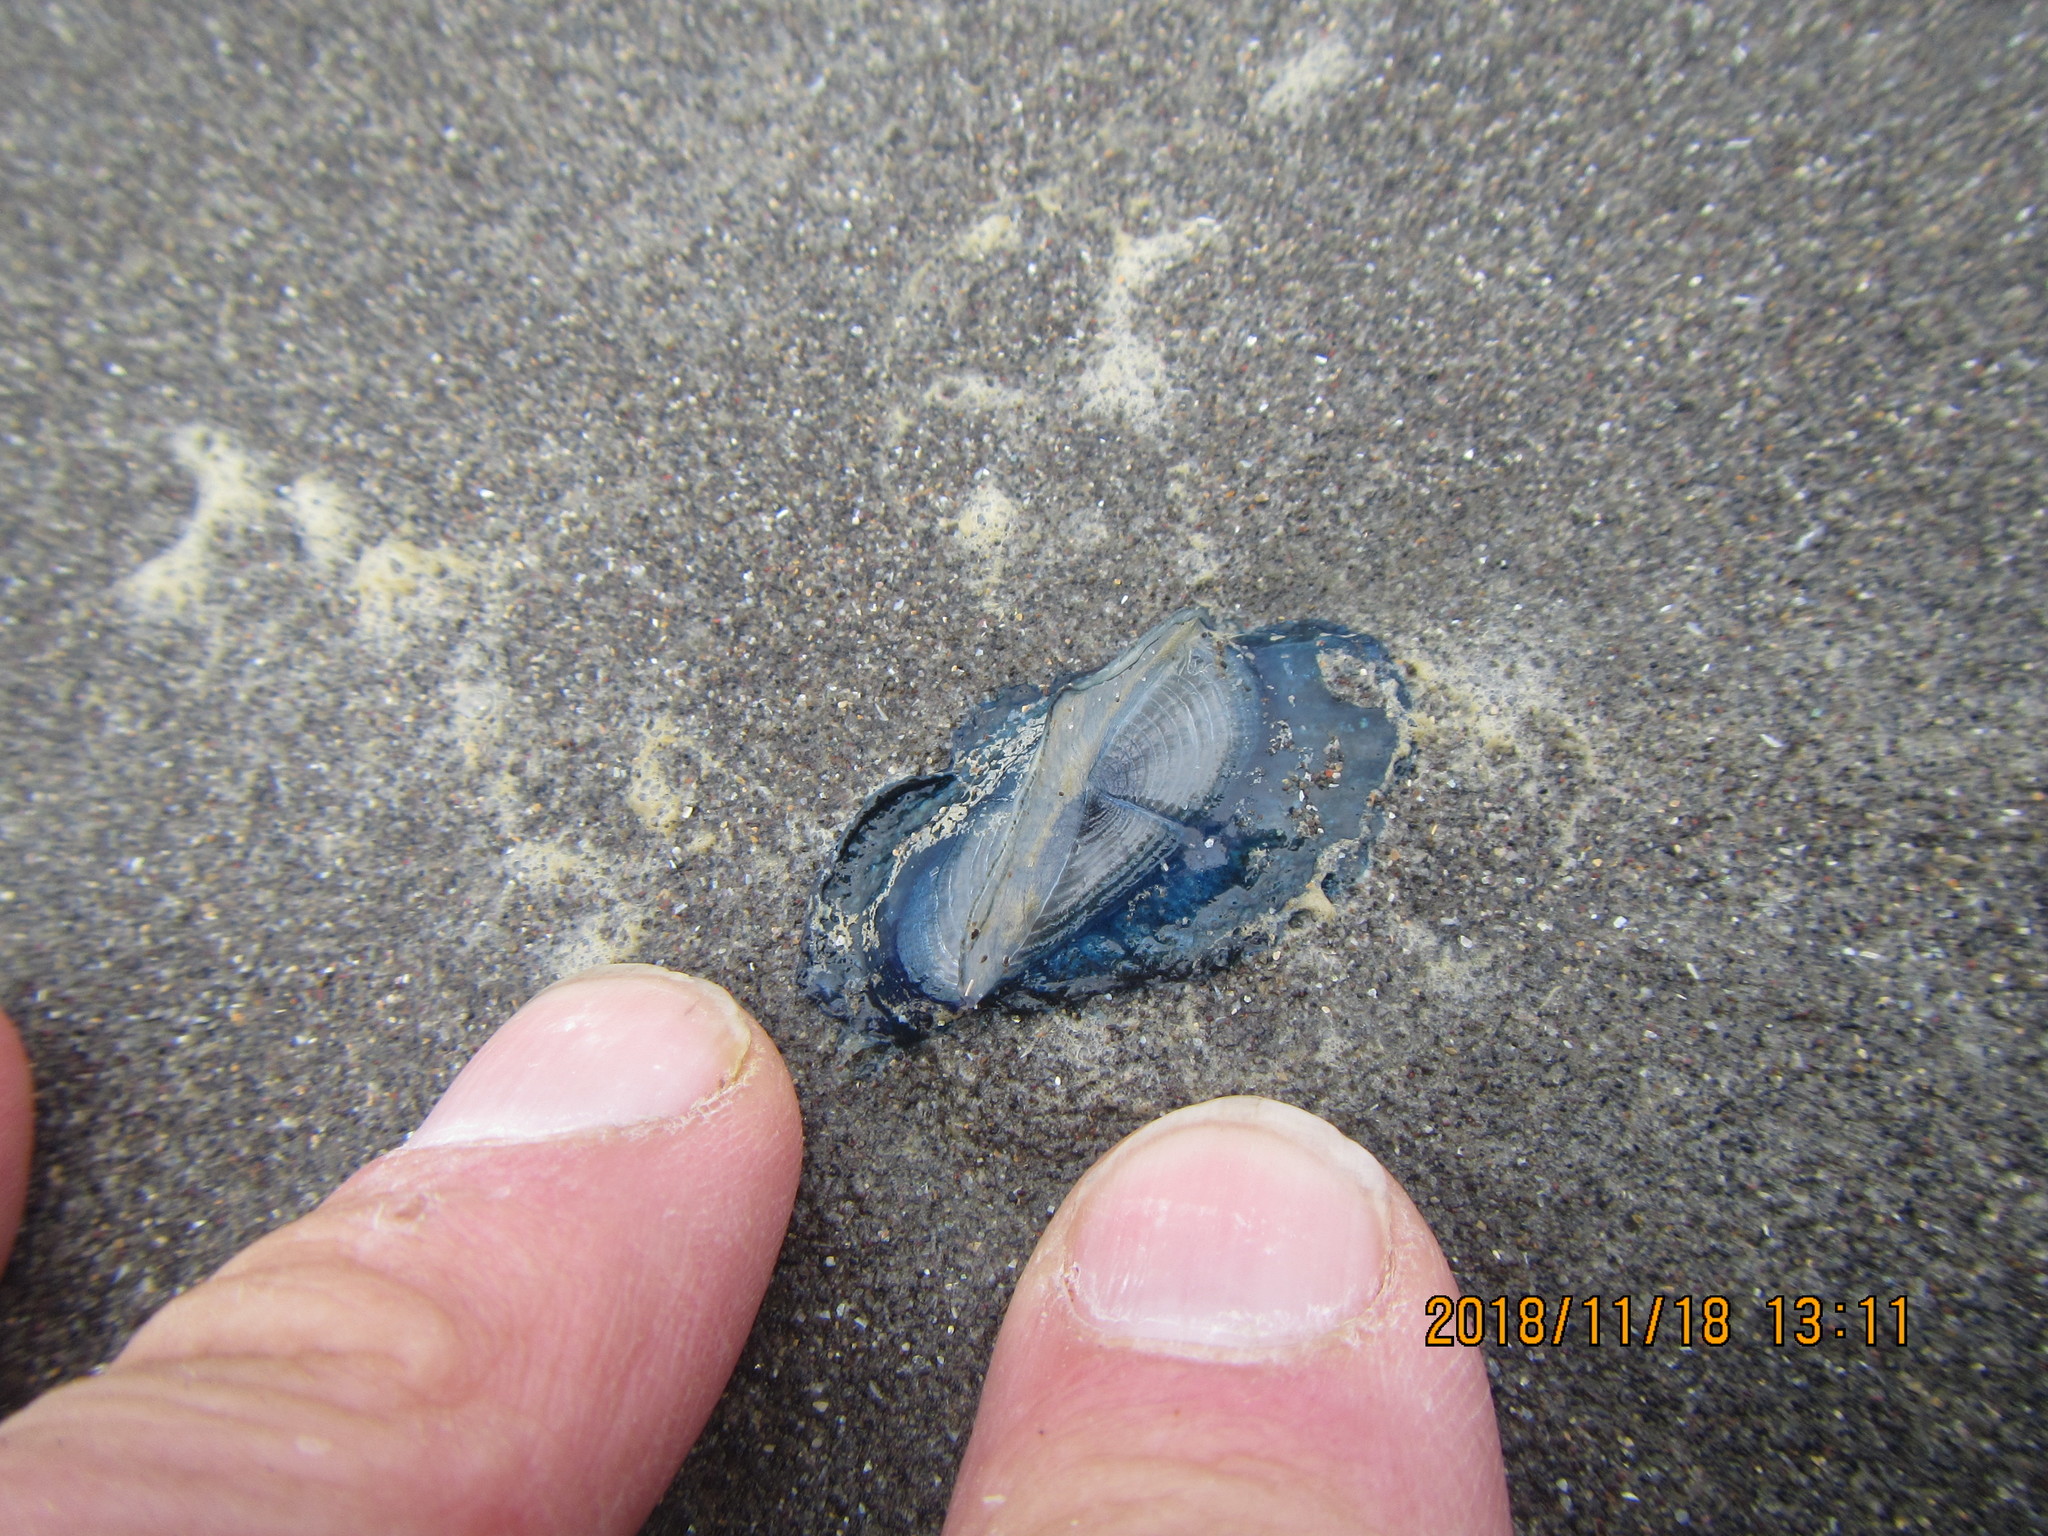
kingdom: Animalia
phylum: Cnidaria
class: Hydrozoa
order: Anthoathecata
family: Porpitidae
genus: Velella
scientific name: Velella velella
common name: By-the-wind-sailor
